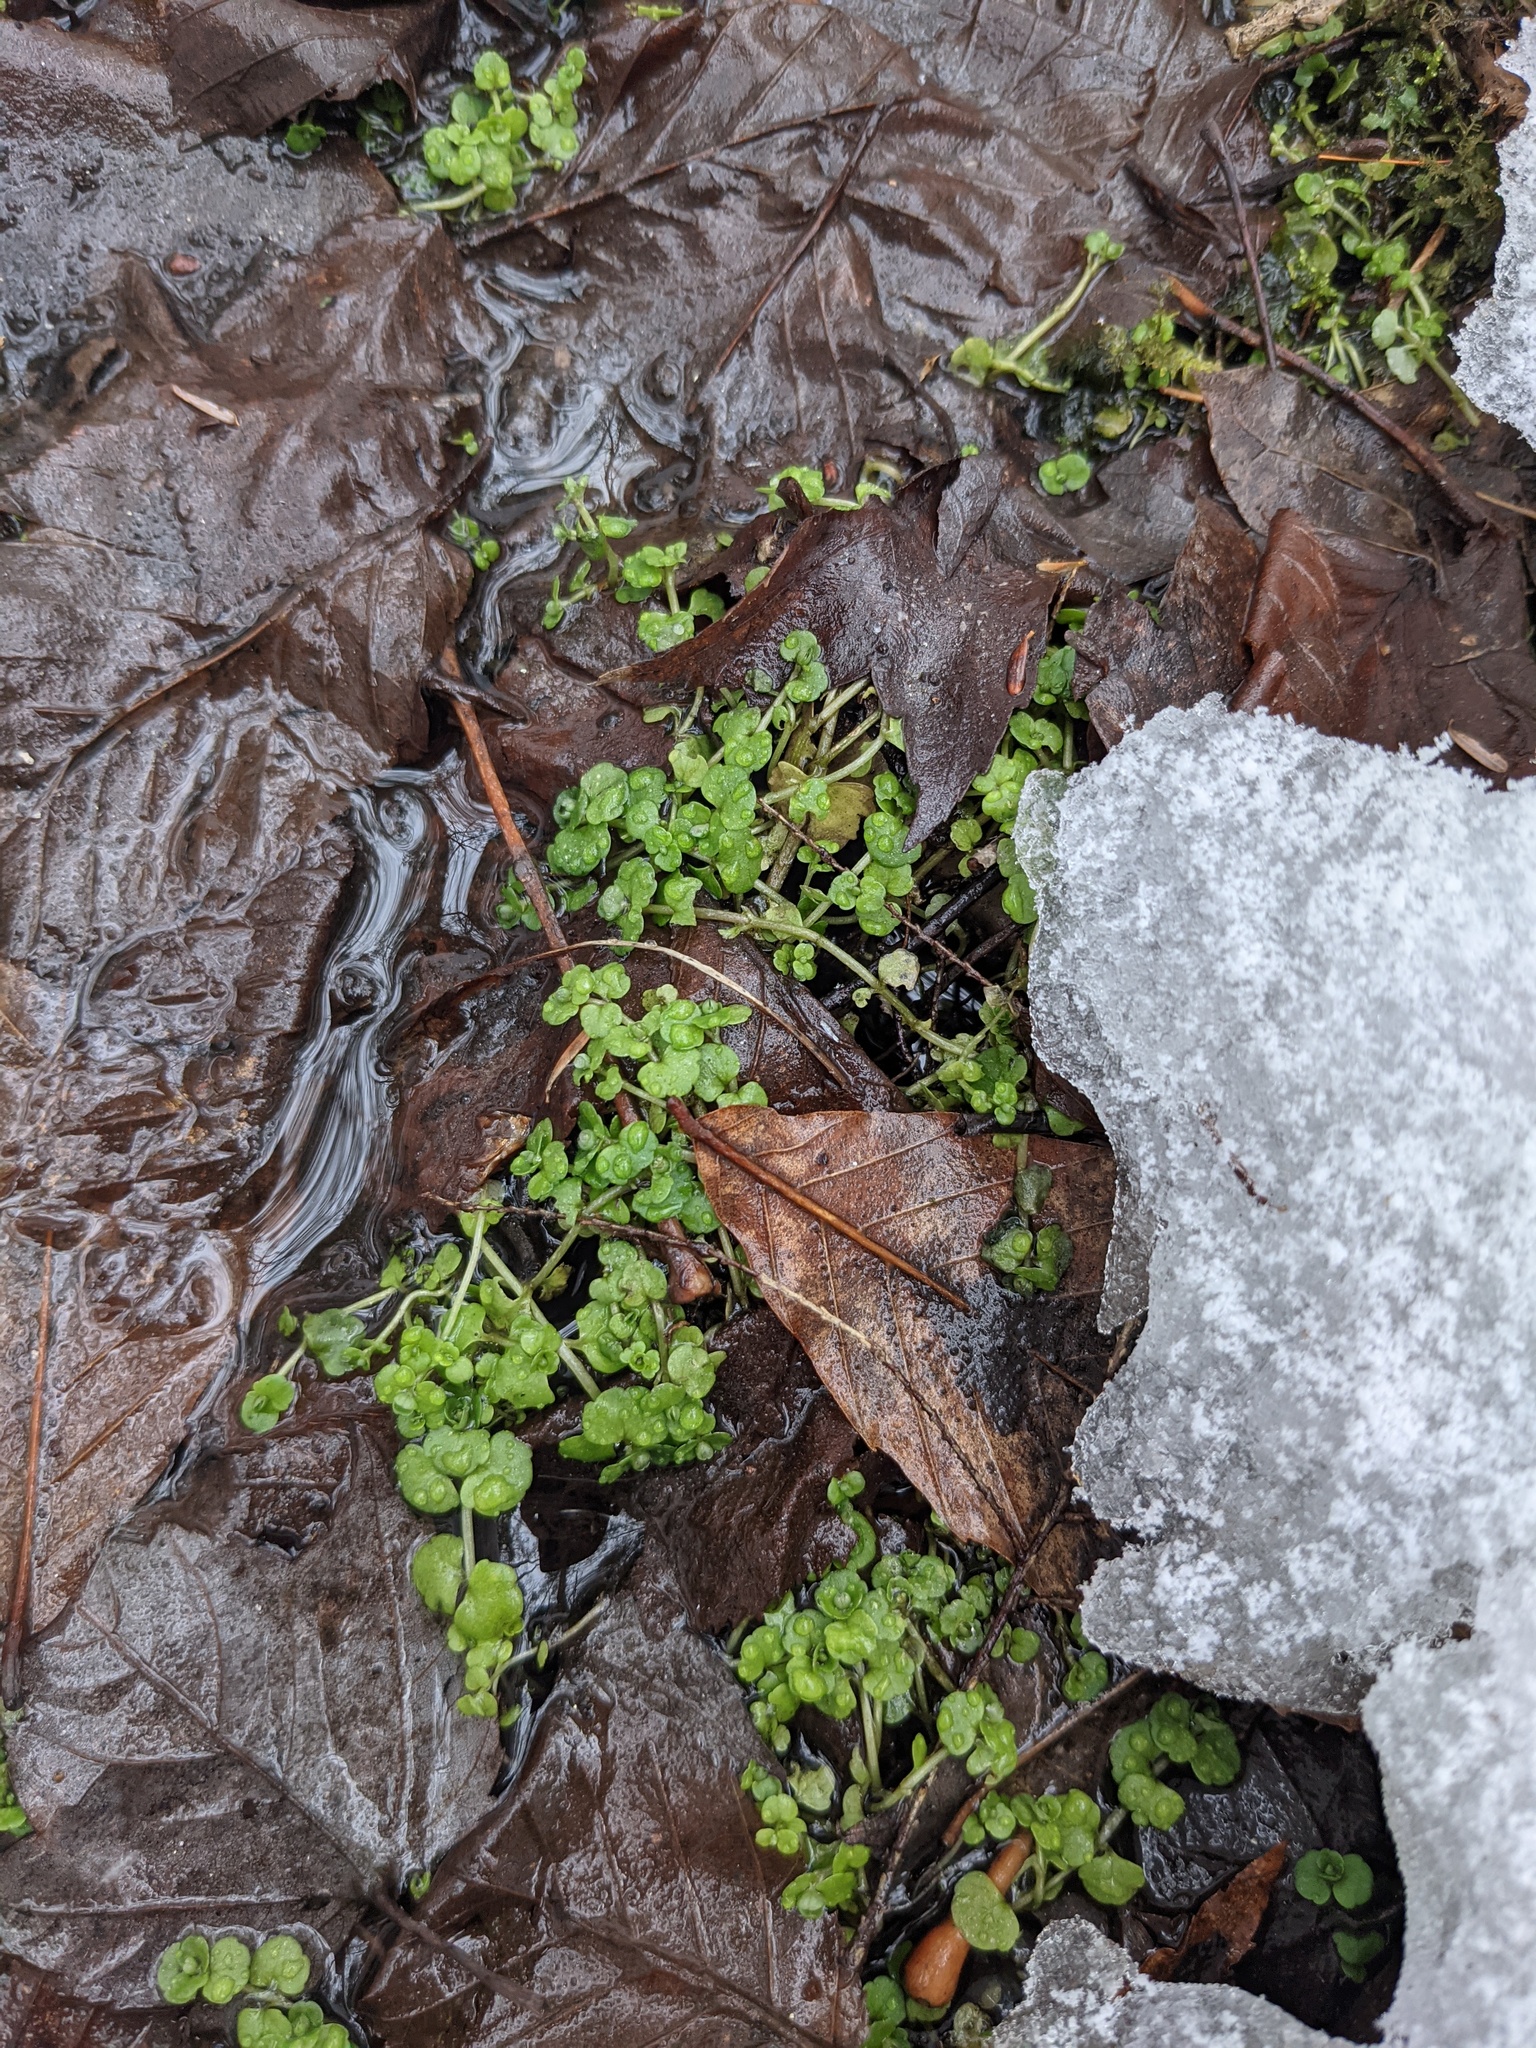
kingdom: Plantae
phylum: Tracheophyta
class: Magnoliopsida
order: Saxifragales
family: Saxifragaceae
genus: Chrysosplenium
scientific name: Chrysosplenium americanum
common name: American golden-saxifrage
